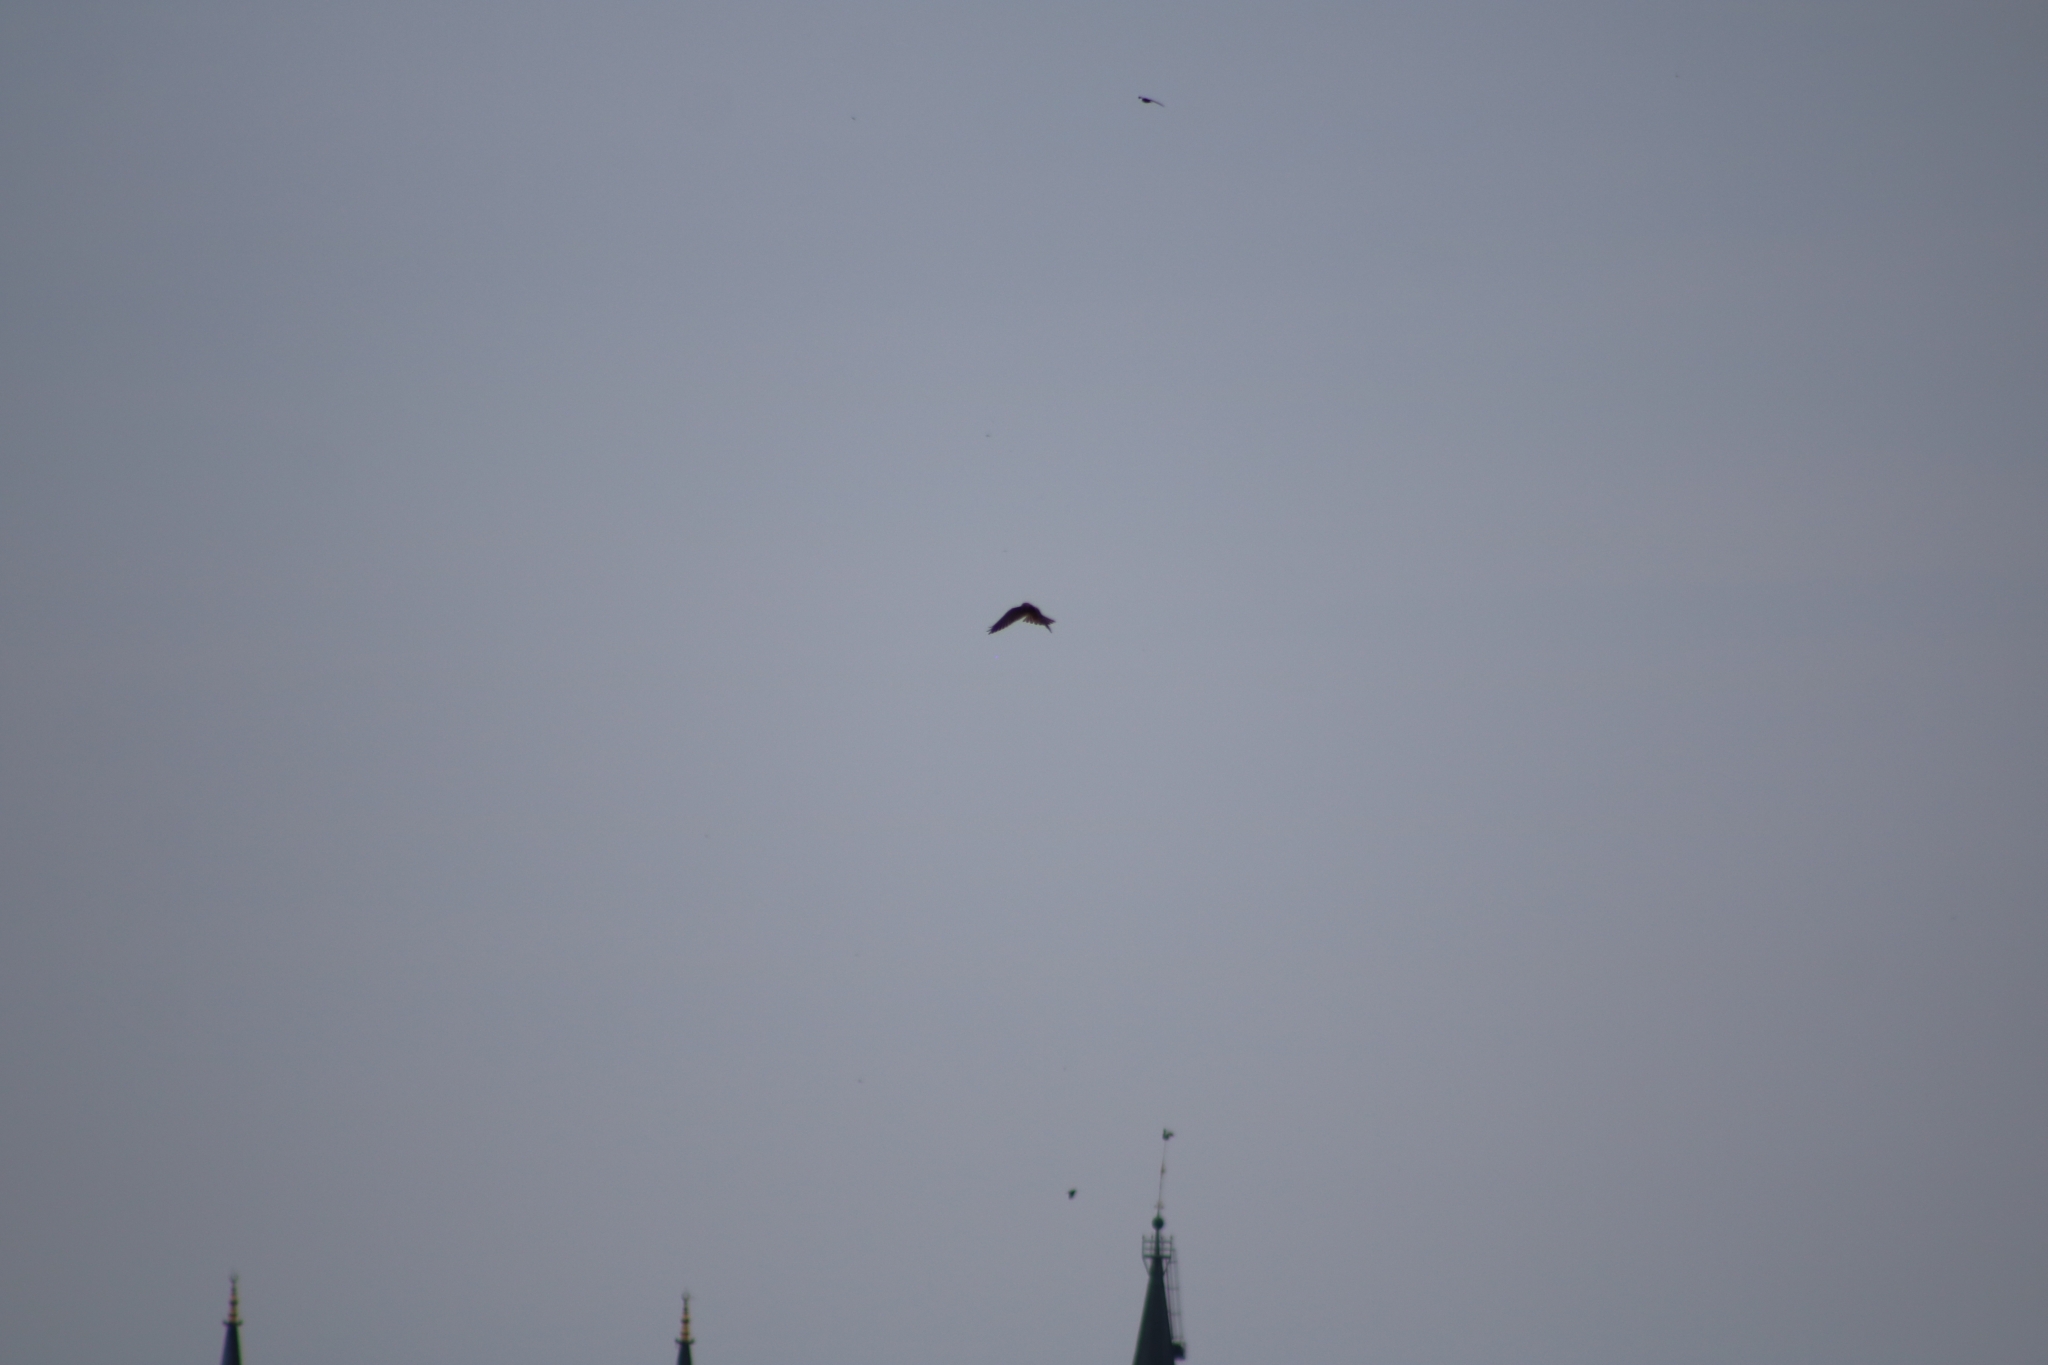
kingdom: Animalia
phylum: Chordata
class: Aves
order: Falconiformes
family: Falconidae
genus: Falco
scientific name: Falco tinnunculus
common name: Common kestrel
